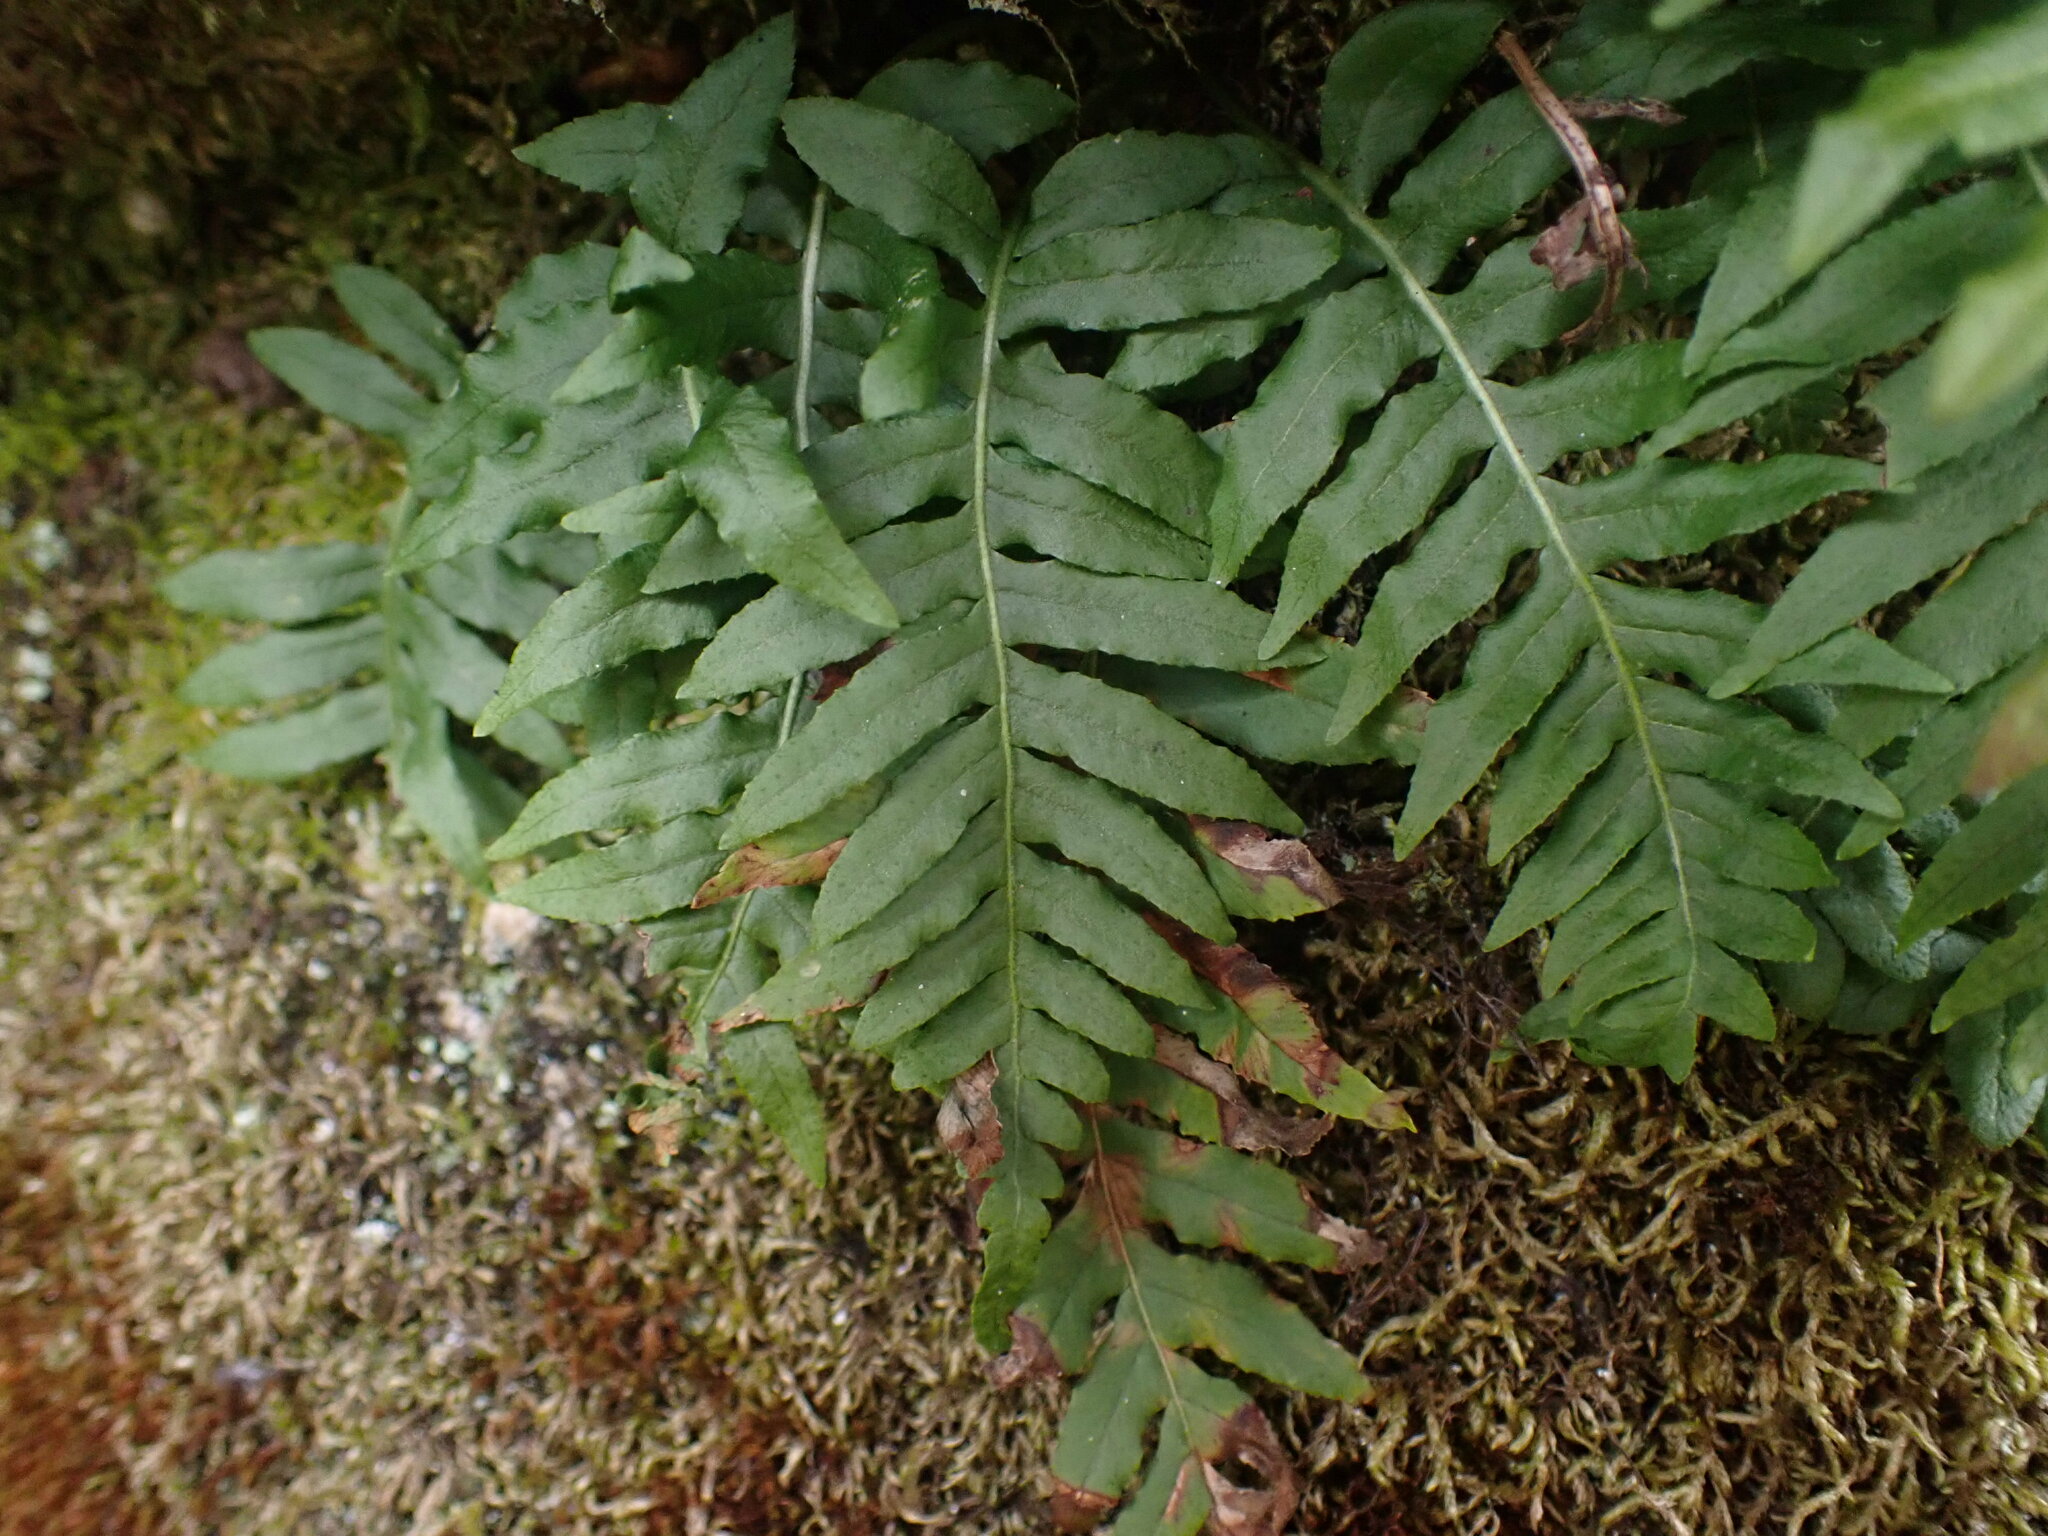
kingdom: Plantae
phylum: Tracheophyta
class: Polypodiopsida
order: Polypodiales
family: Polypodiaceae
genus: Polypodium
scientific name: Polypodium glycyrrhiza
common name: Licorice fern
